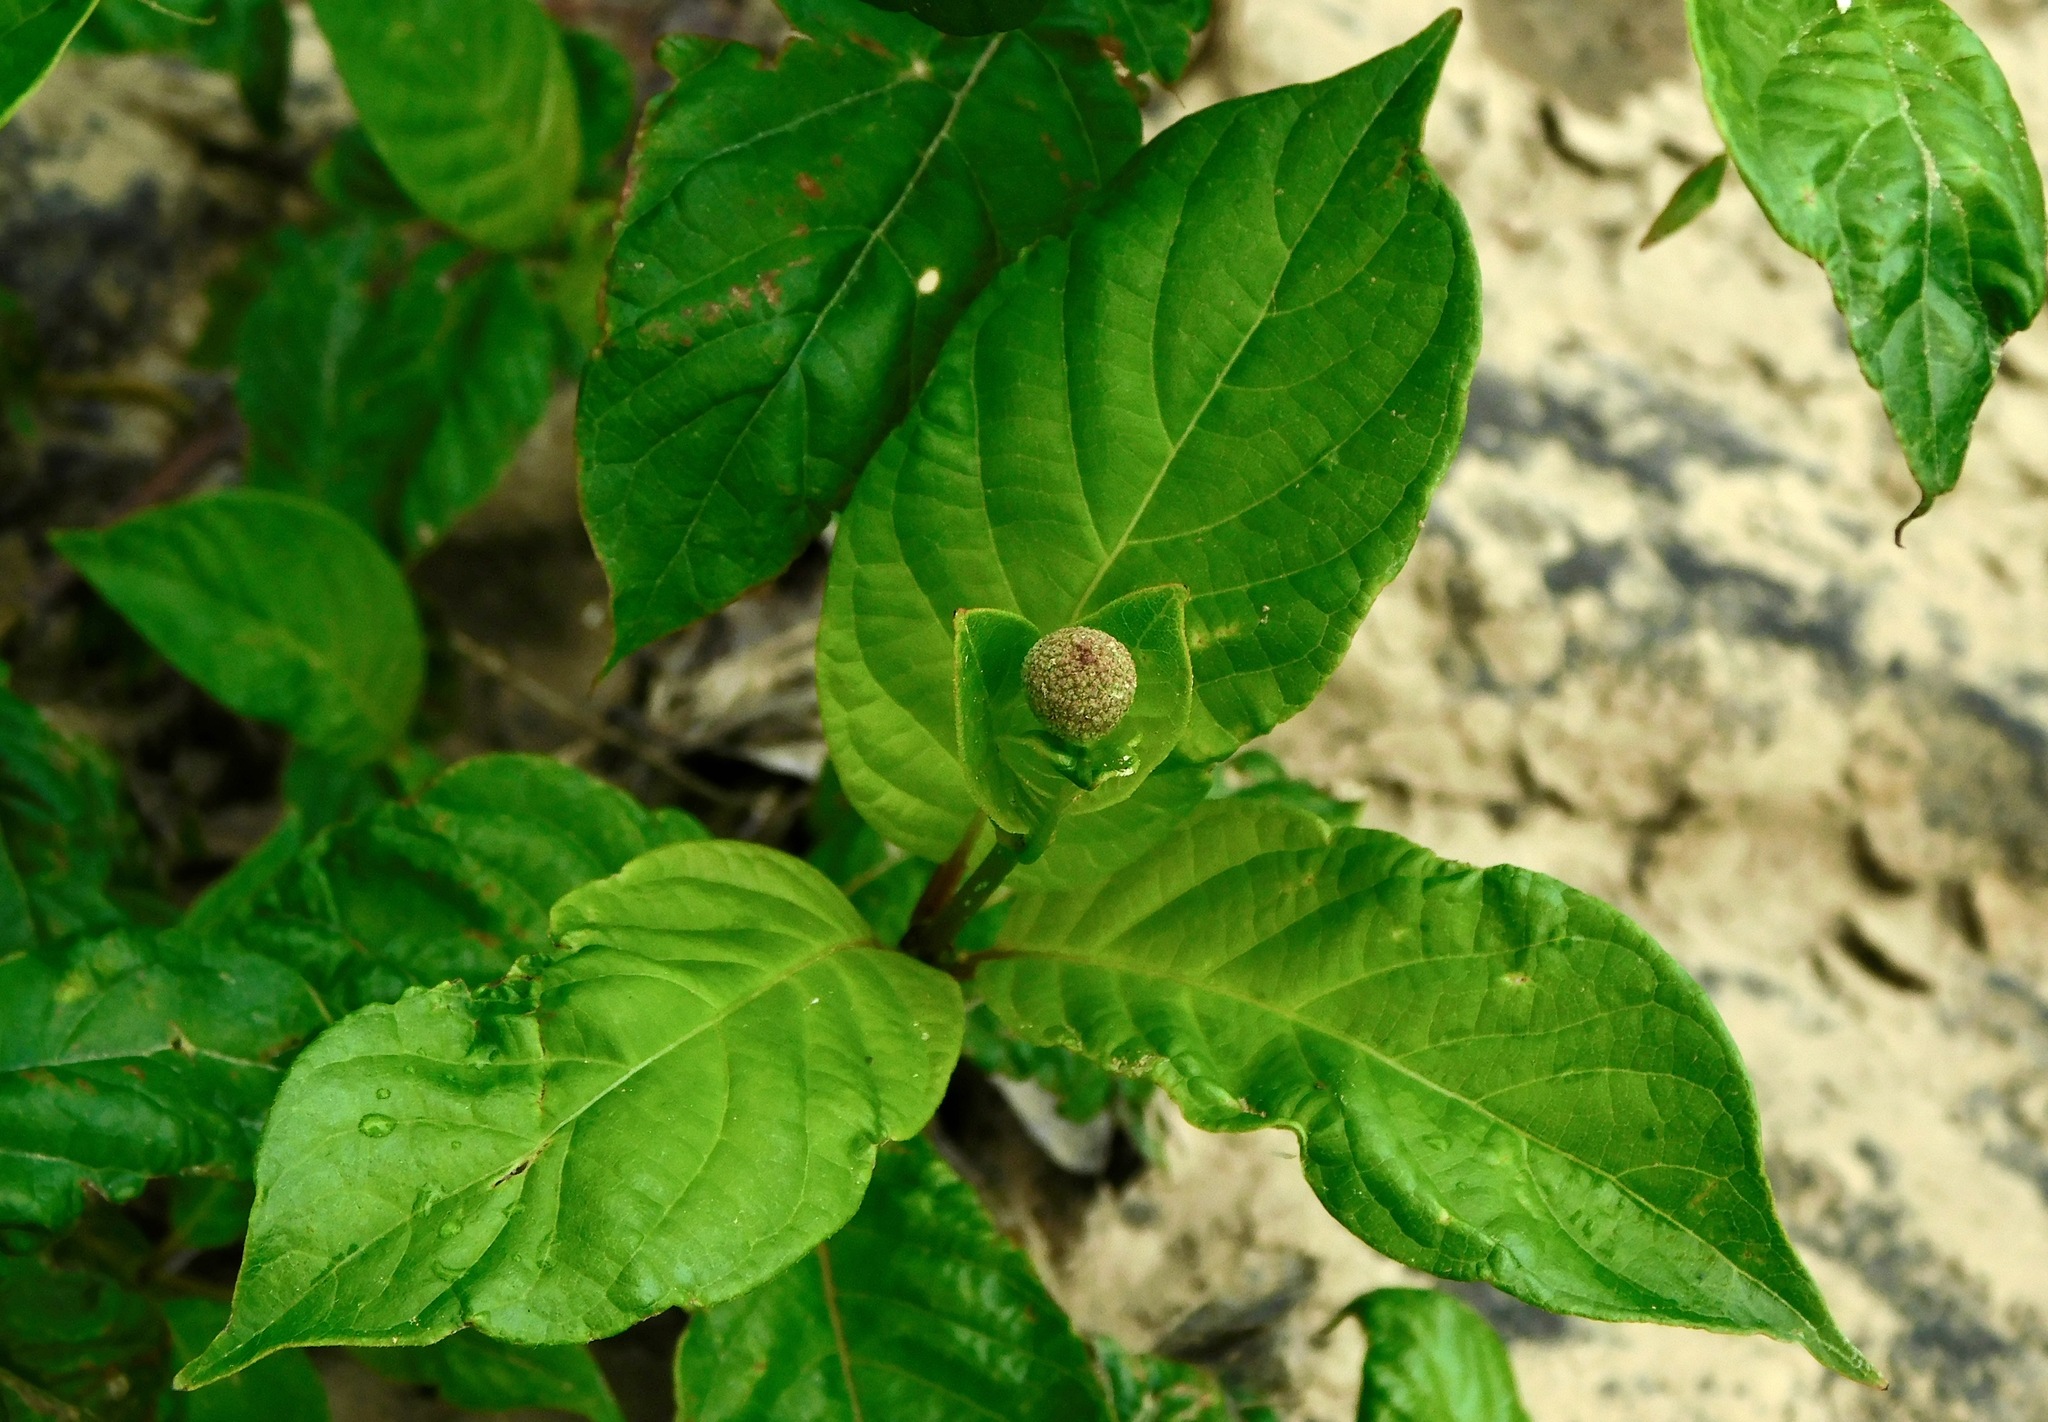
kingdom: Plantae
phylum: Tracheophyta
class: Magnoliopsida
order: Gentianales
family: Rubiaceae
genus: Cephalanthus
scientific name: Cephalanthus occidentalis
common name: Button-willow
